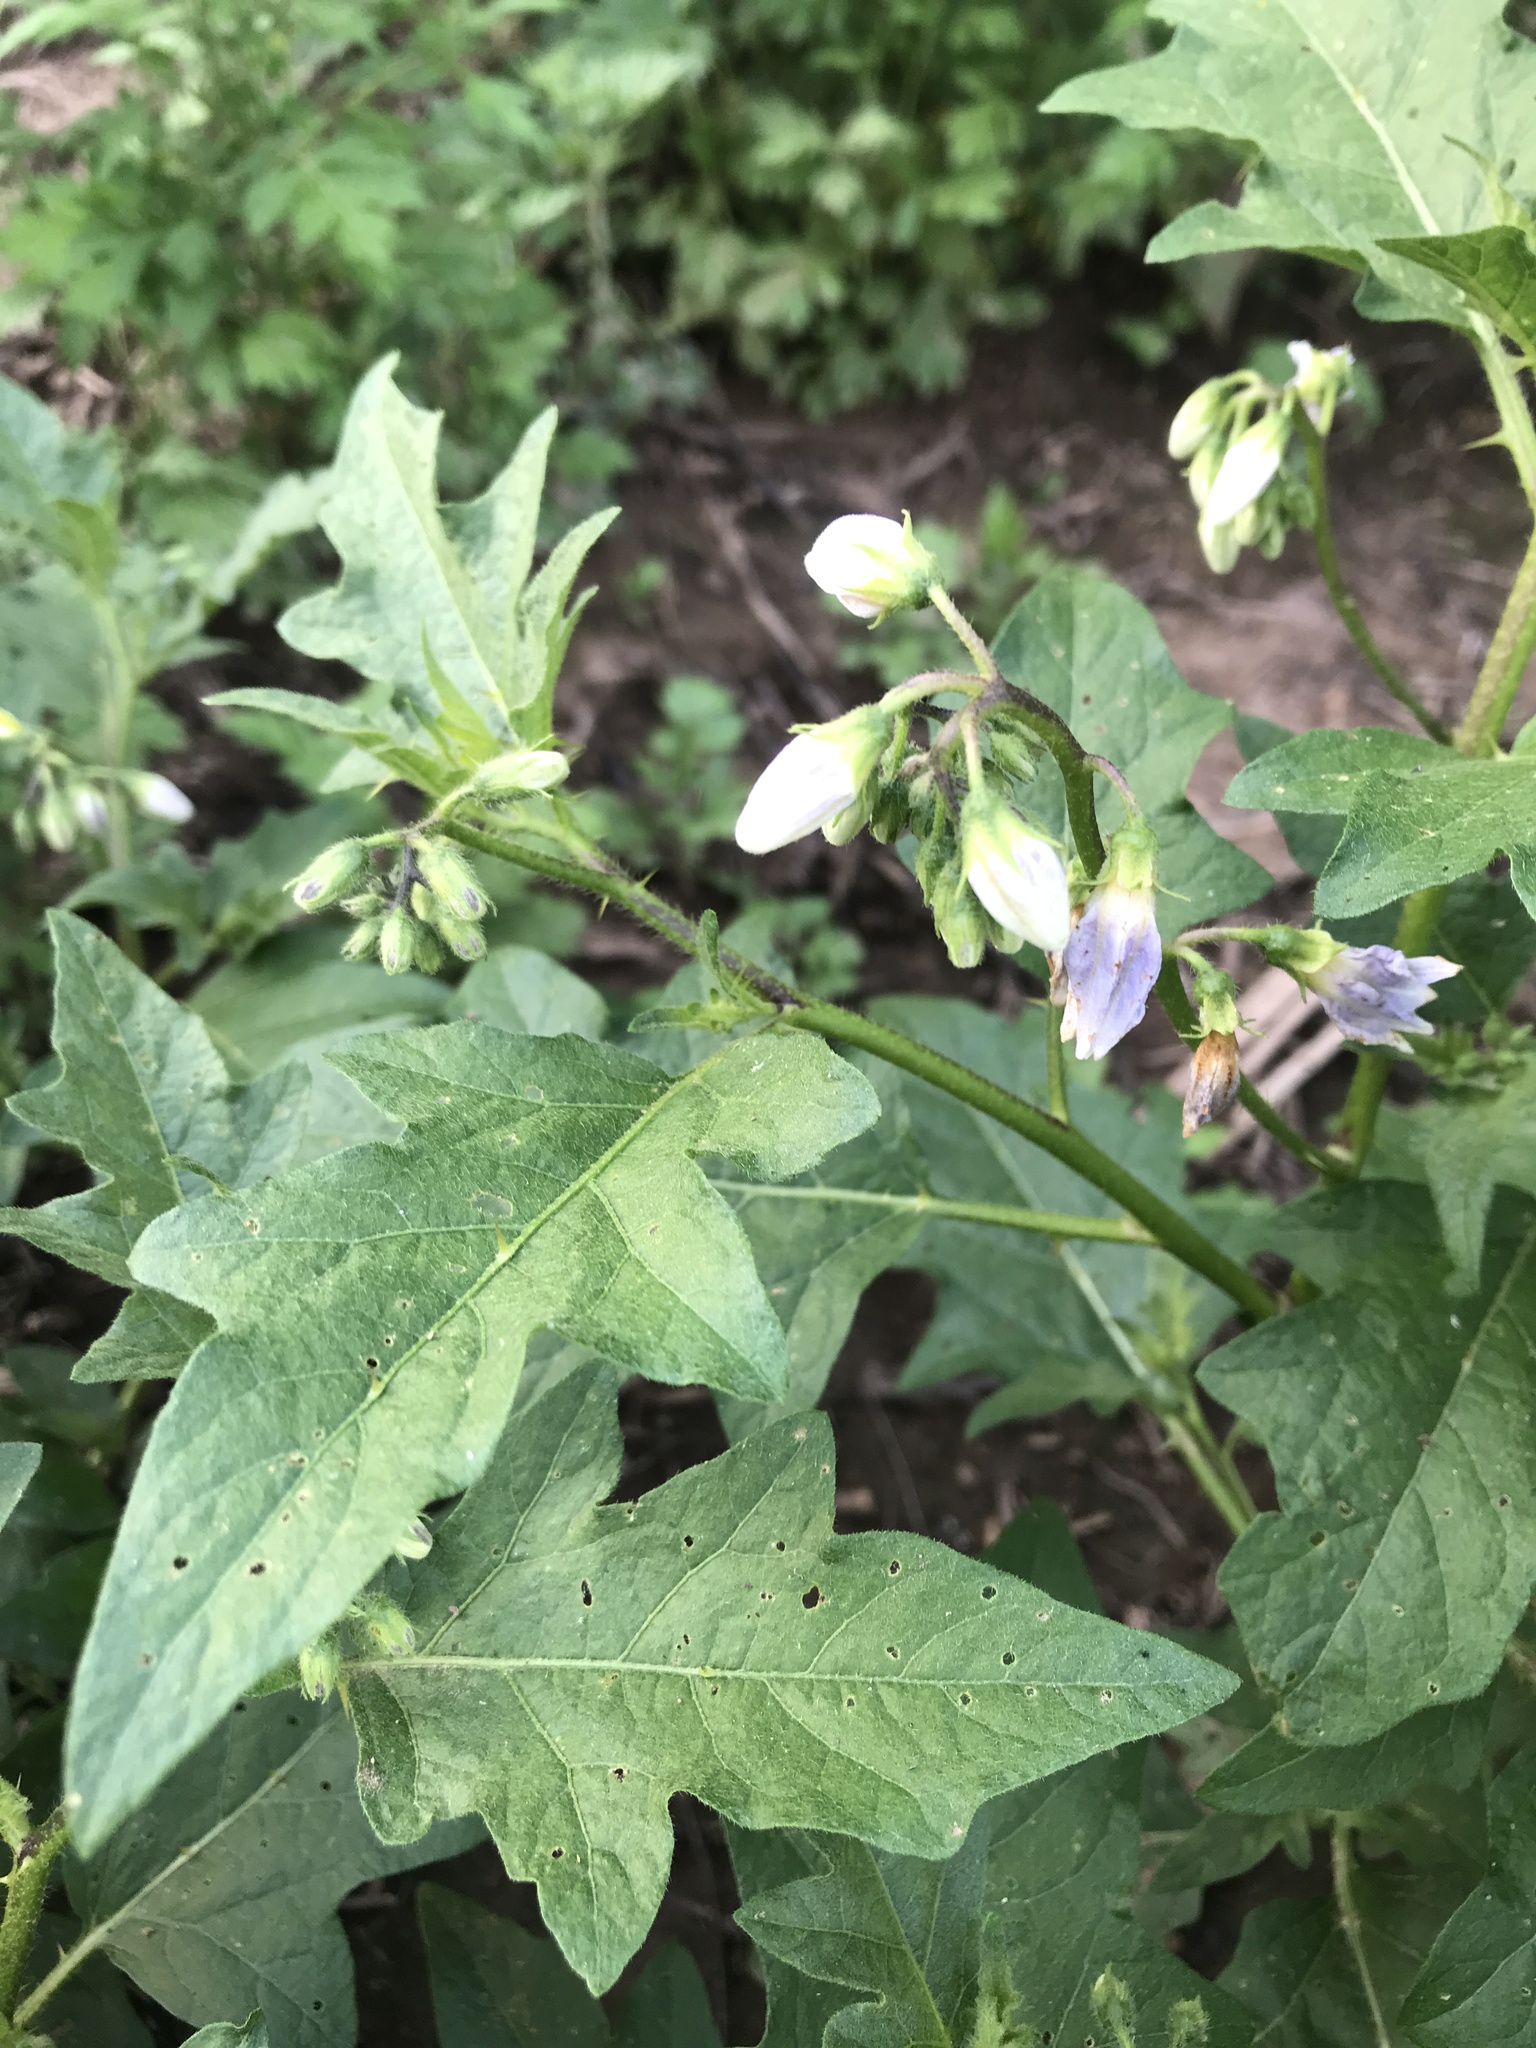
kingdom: Plantae
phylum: Tracheophyta
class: Magnoliopsida
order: Solanales
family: Solanaceae
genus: Solanum
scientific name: Solanum carolinense
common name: Horse-nettle
